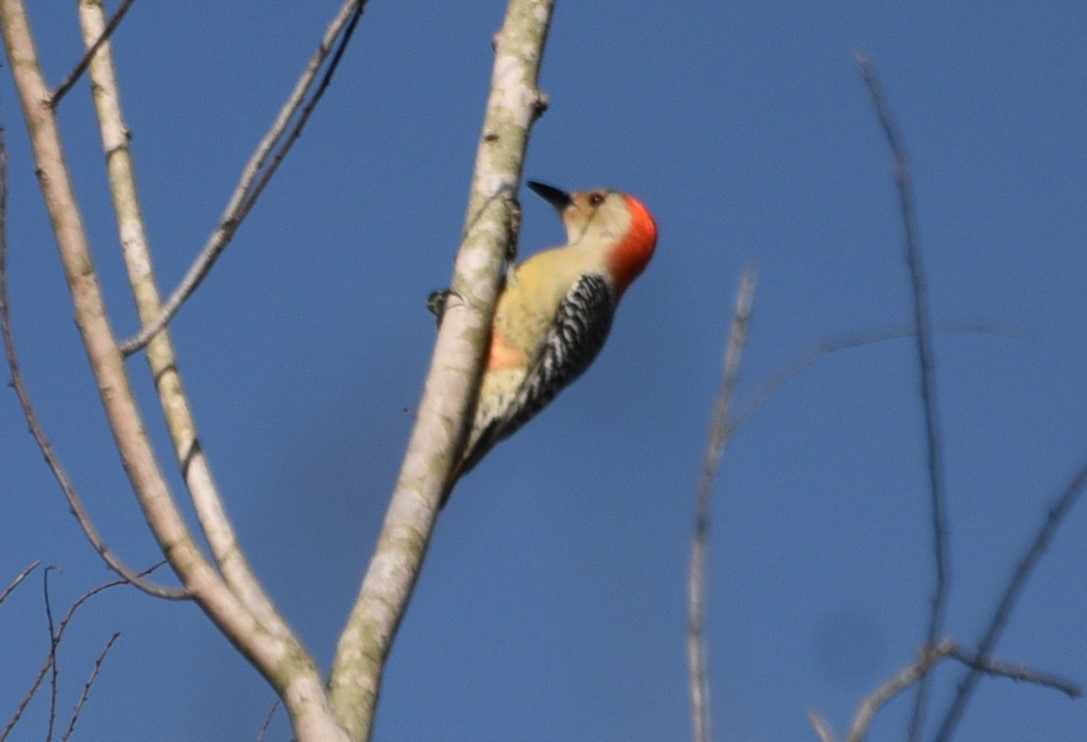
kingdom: Animalia
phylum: Chordata
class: Aves
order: Piciformes
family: Picidae
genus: Melanerpes
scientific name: Melanerpes carolinus
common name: Red-bellied woodpecker
